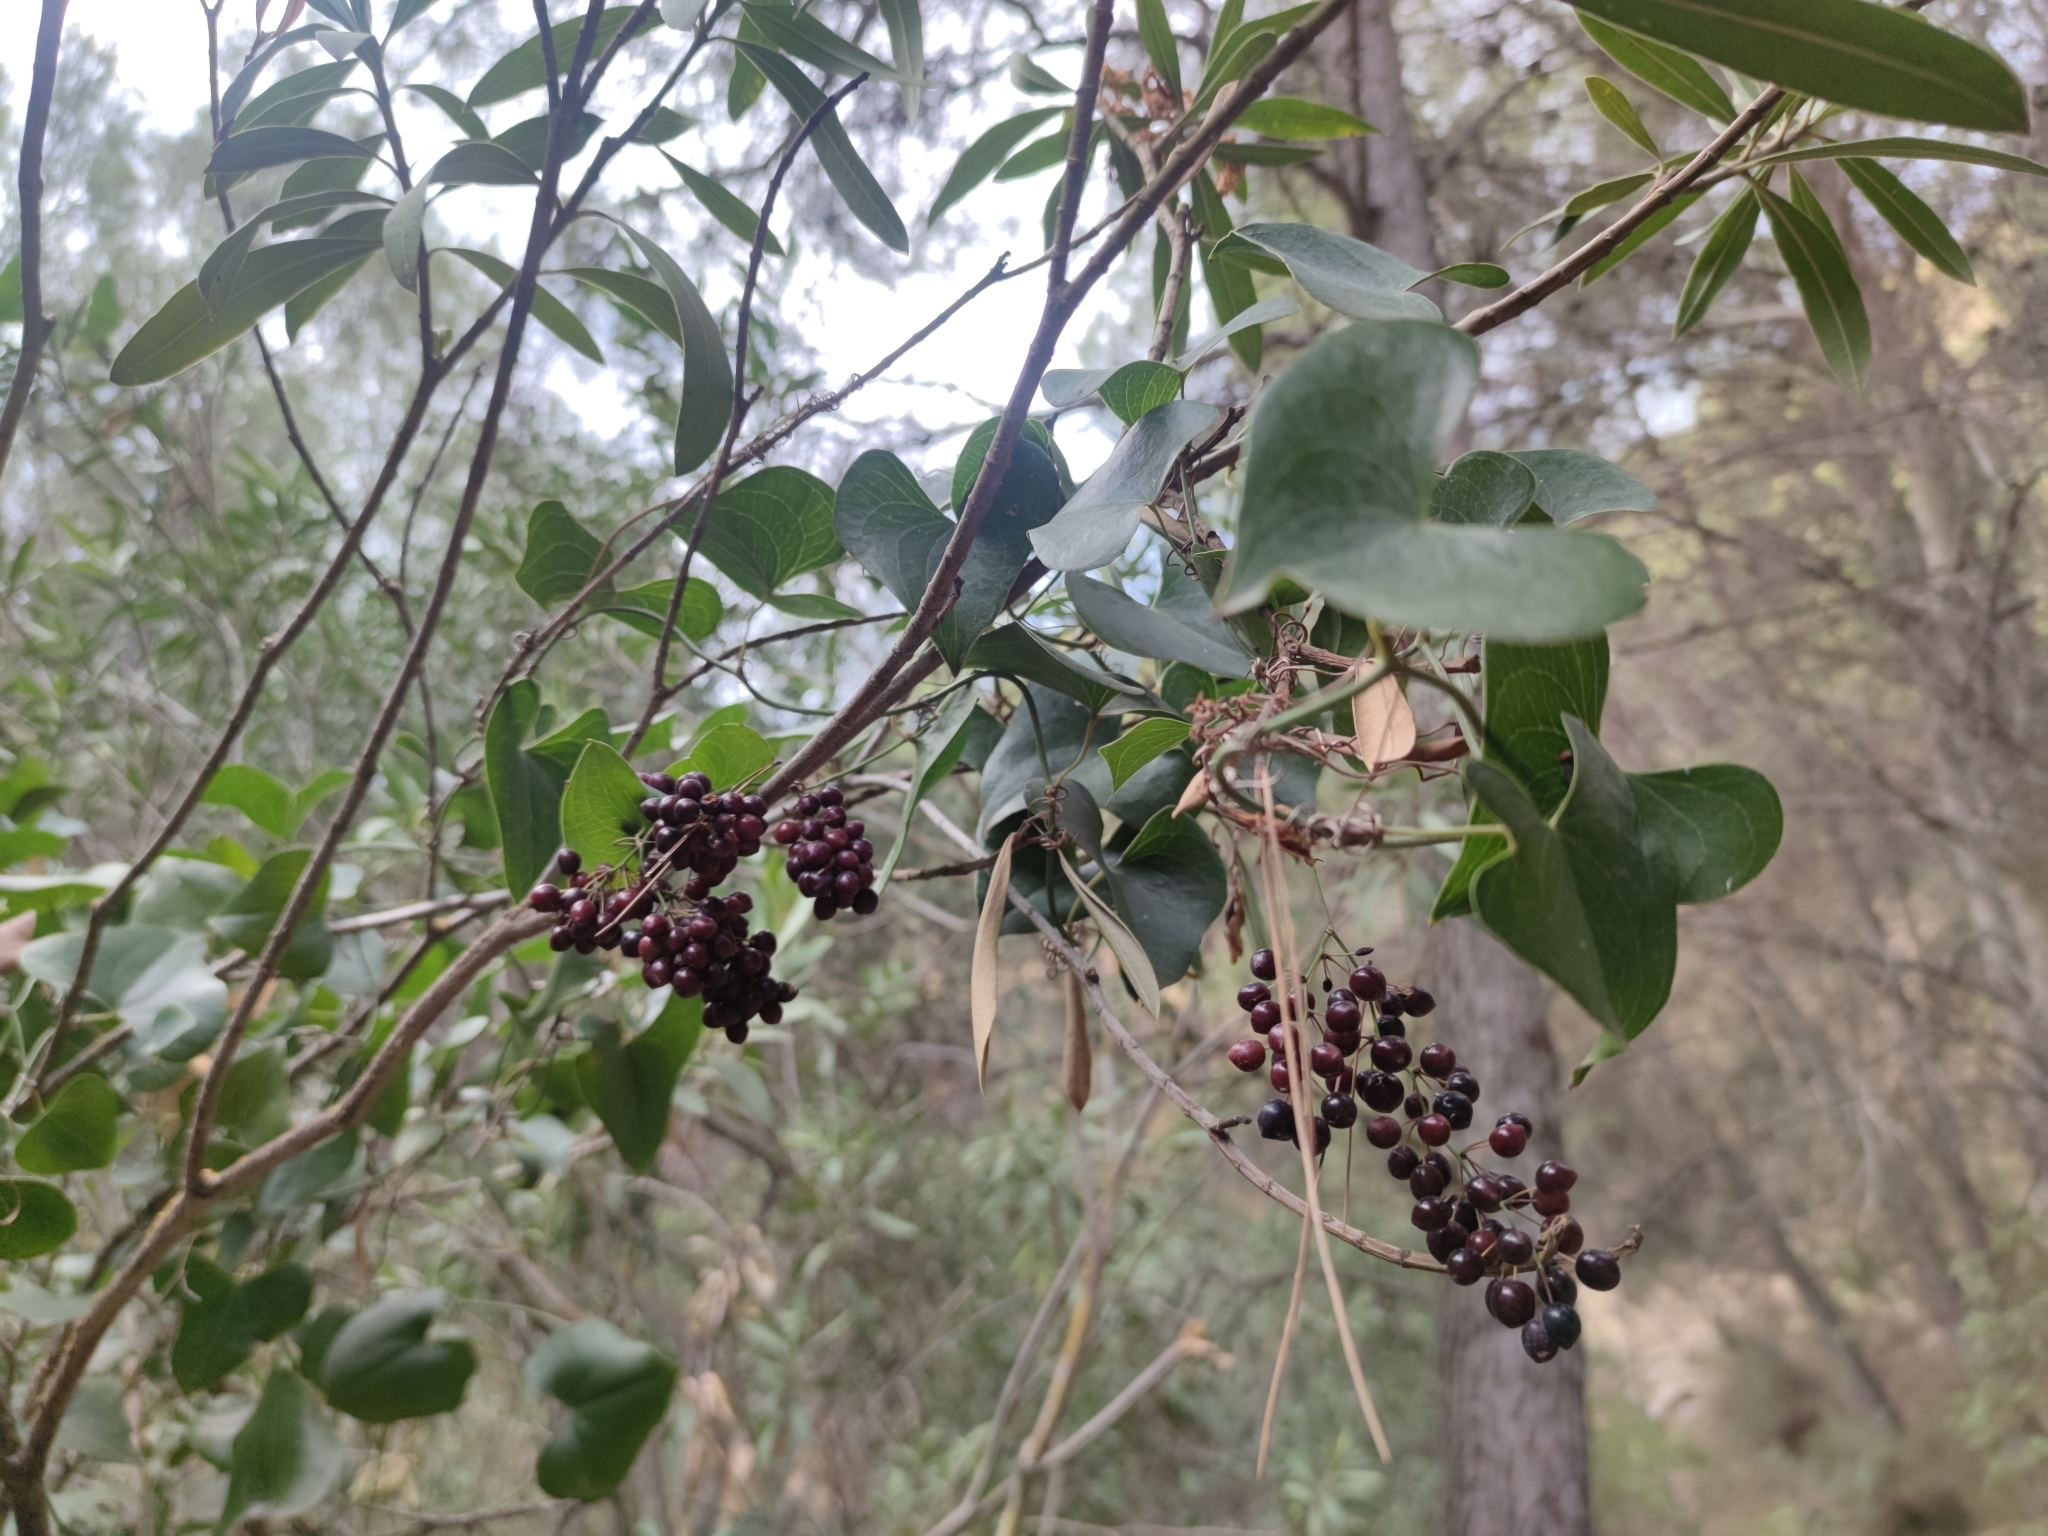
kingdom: Plantae
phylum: Tracheophyta
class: Liliopsida
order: Liliales
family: Smilacaceae
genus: Smilax
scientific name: Smilax aspera
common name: Common smilax
